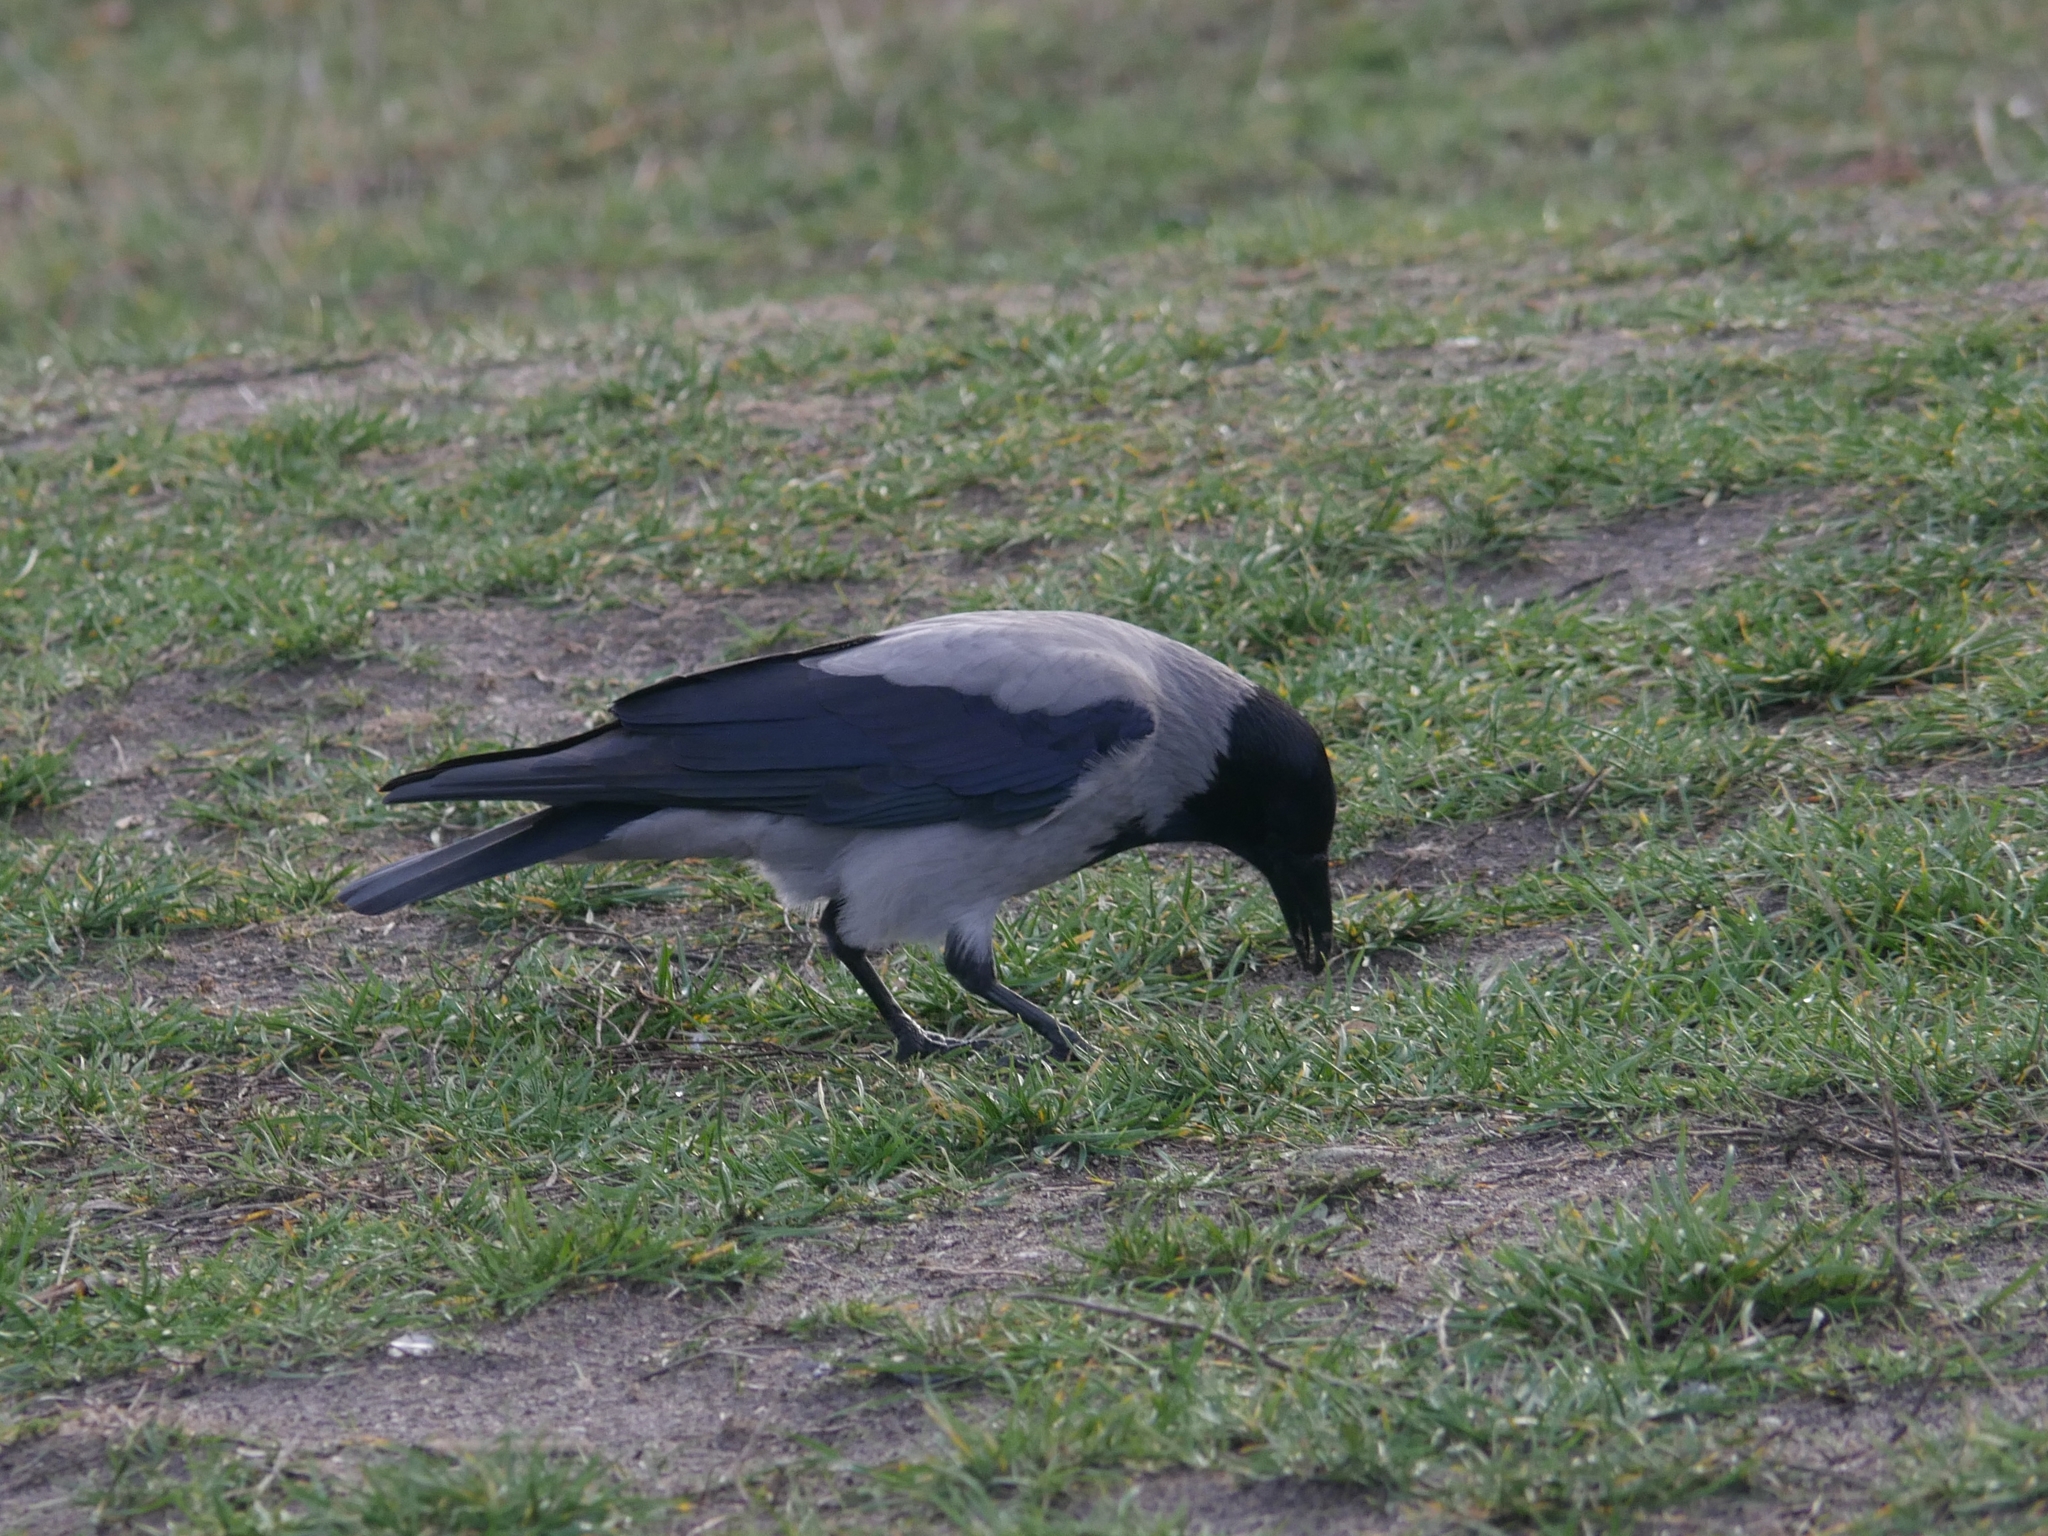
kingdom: Animalia
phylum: Chordata
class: Aves
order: Passeriformes
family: Corvidae
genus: Corvus
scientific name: Corvus cornix
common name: Hooded crow
